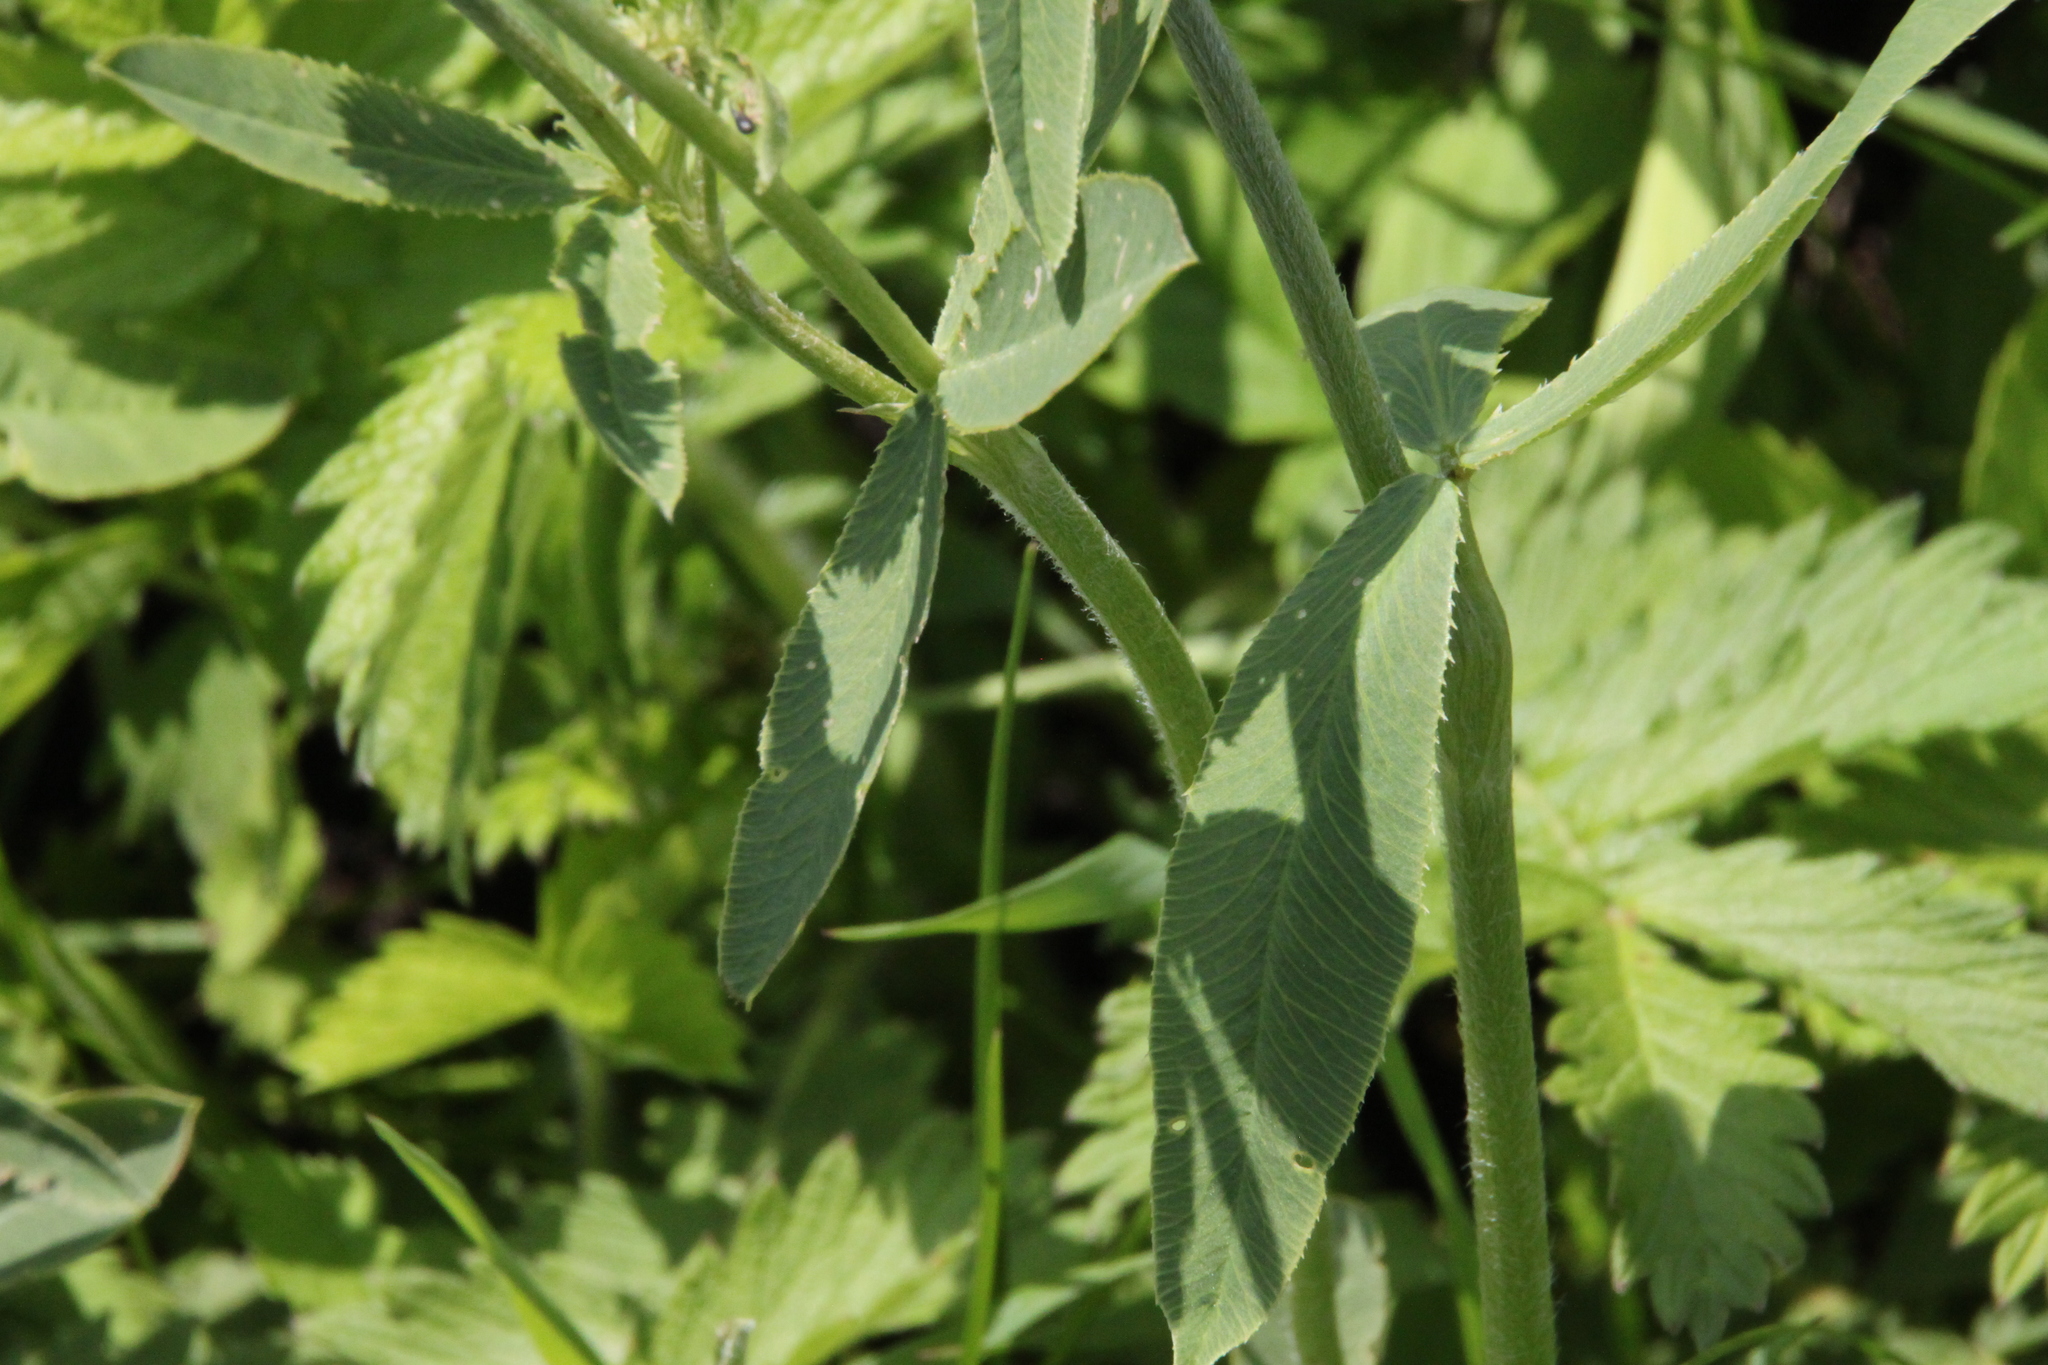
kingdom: Plantae
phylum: Tracheophyta
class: Magnoliopsida
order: Fabales
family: Fabaceae
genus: Trifolium
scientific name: Trifolium montanum
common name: Mountain clover
